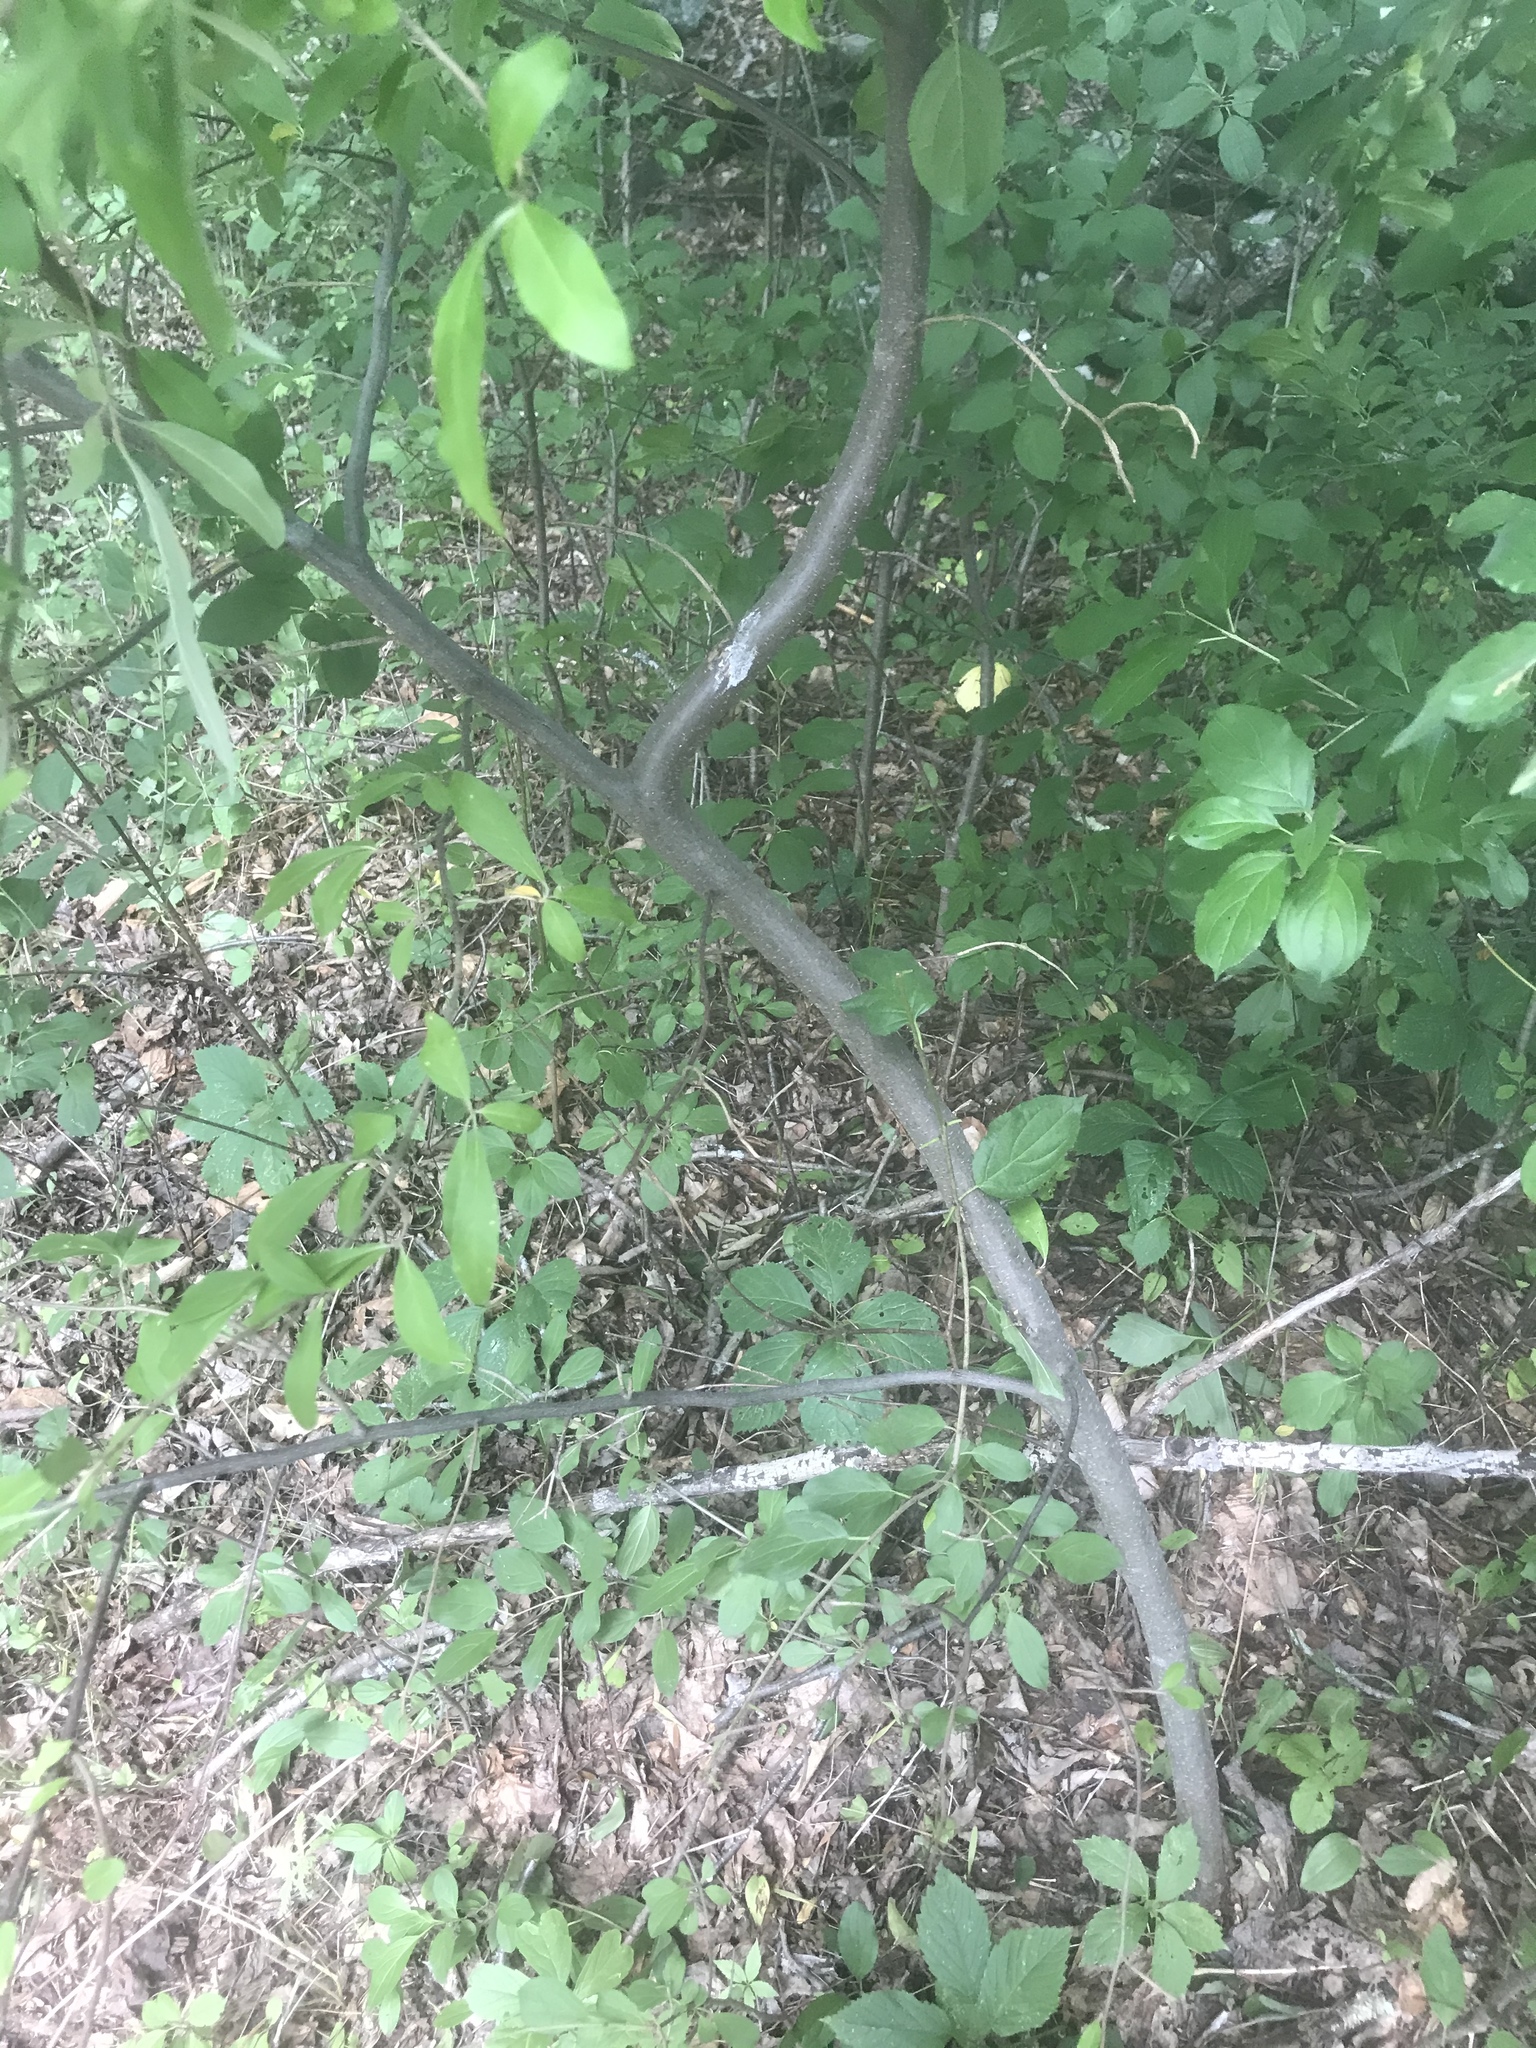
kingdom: Plantae
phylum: Tracheophyta
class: Magnoliopsida
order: Rosales
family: Elaeagnaceae
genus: Elaeagnus
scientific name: Elaeagnus umbellata
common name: Autumn olive
